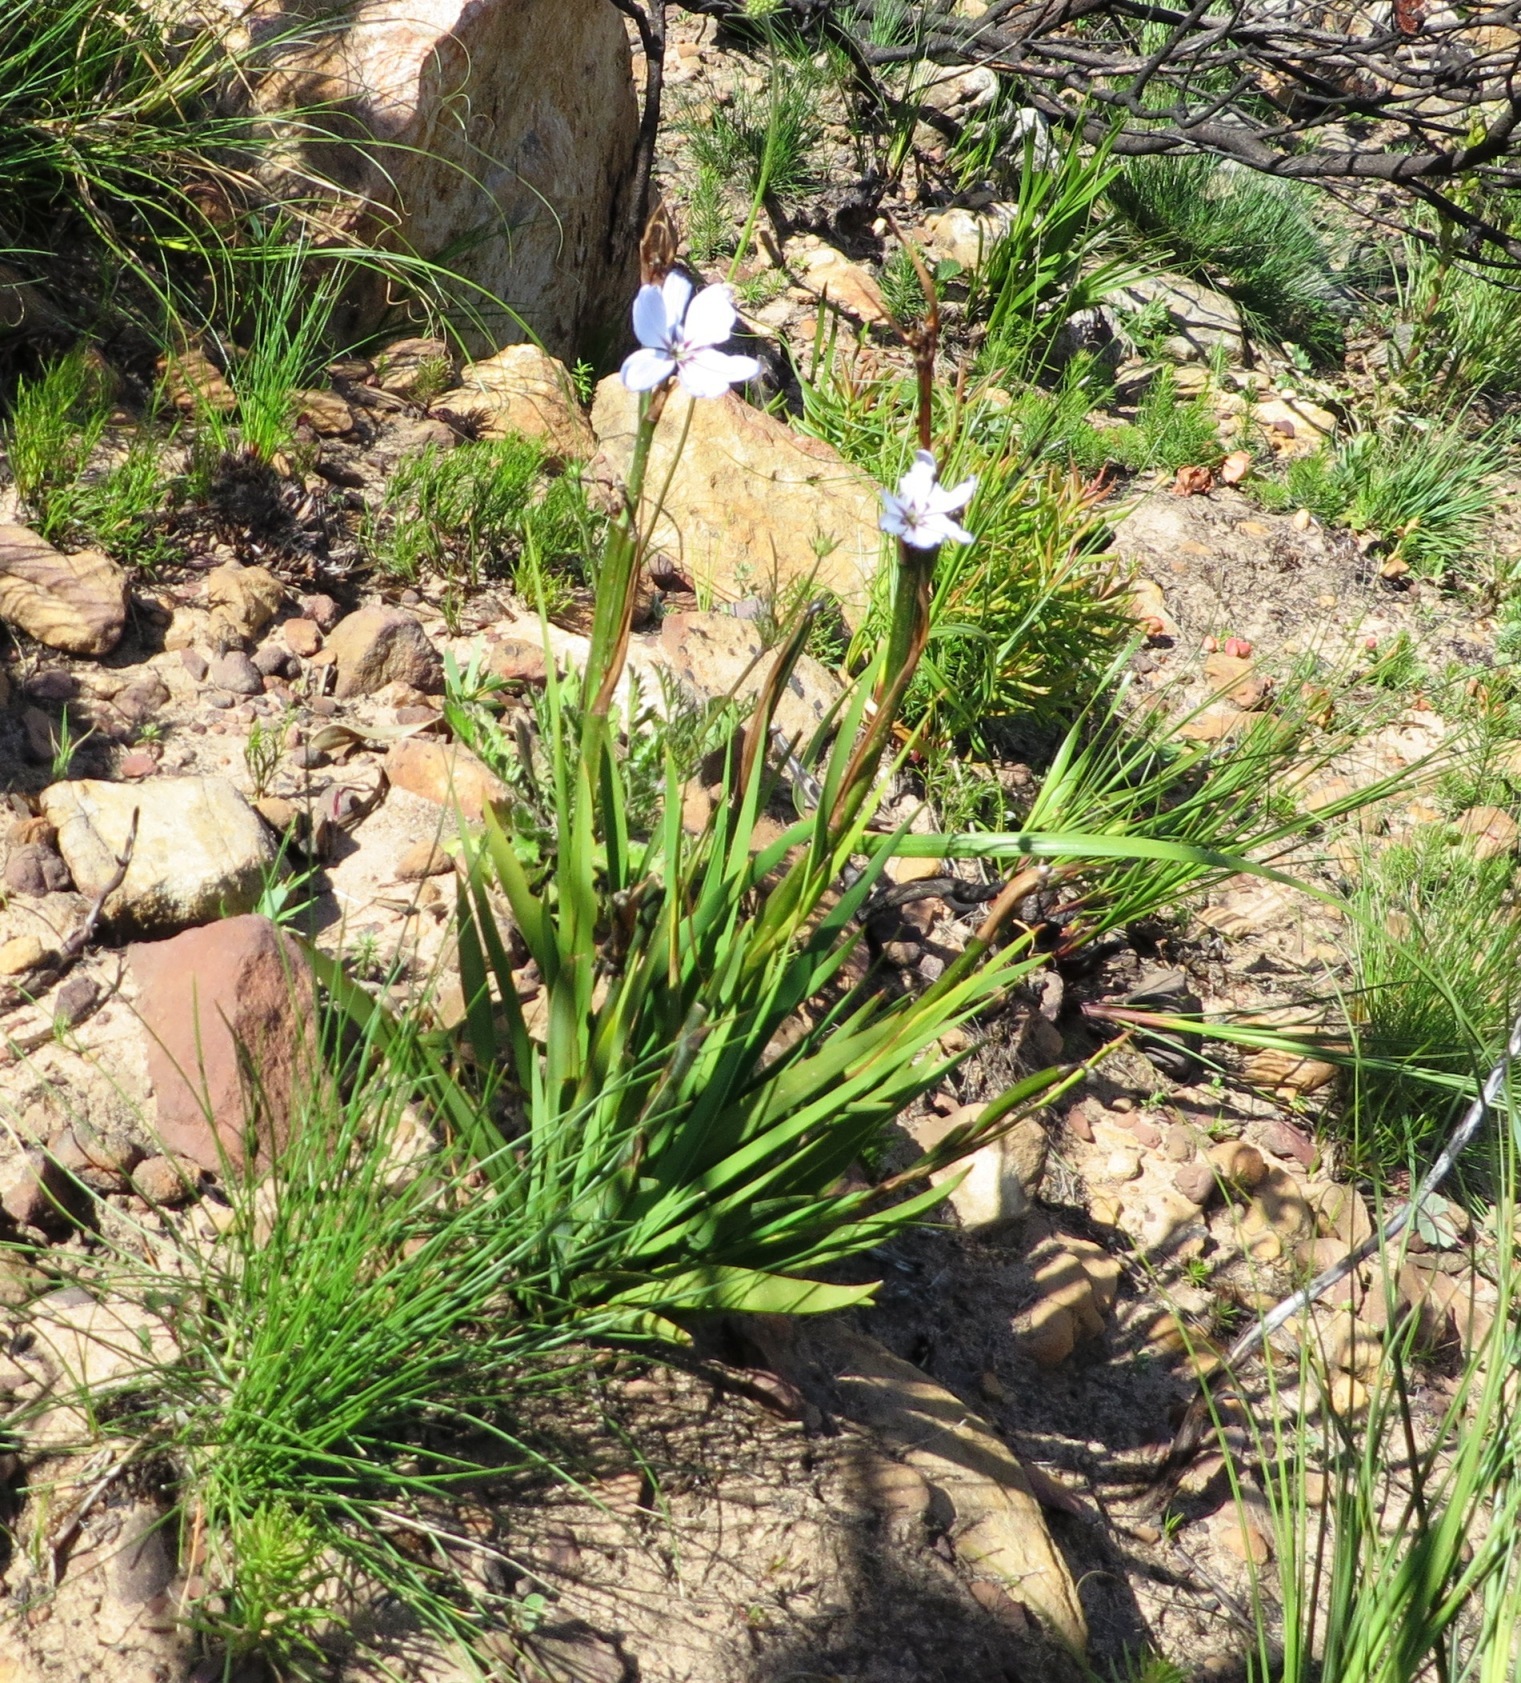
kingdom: Plantae
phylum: Tracheophyta
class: Liliopsida
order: Asparagales
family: Iridaceae
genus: Aristea
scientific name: Aristea spiralis
